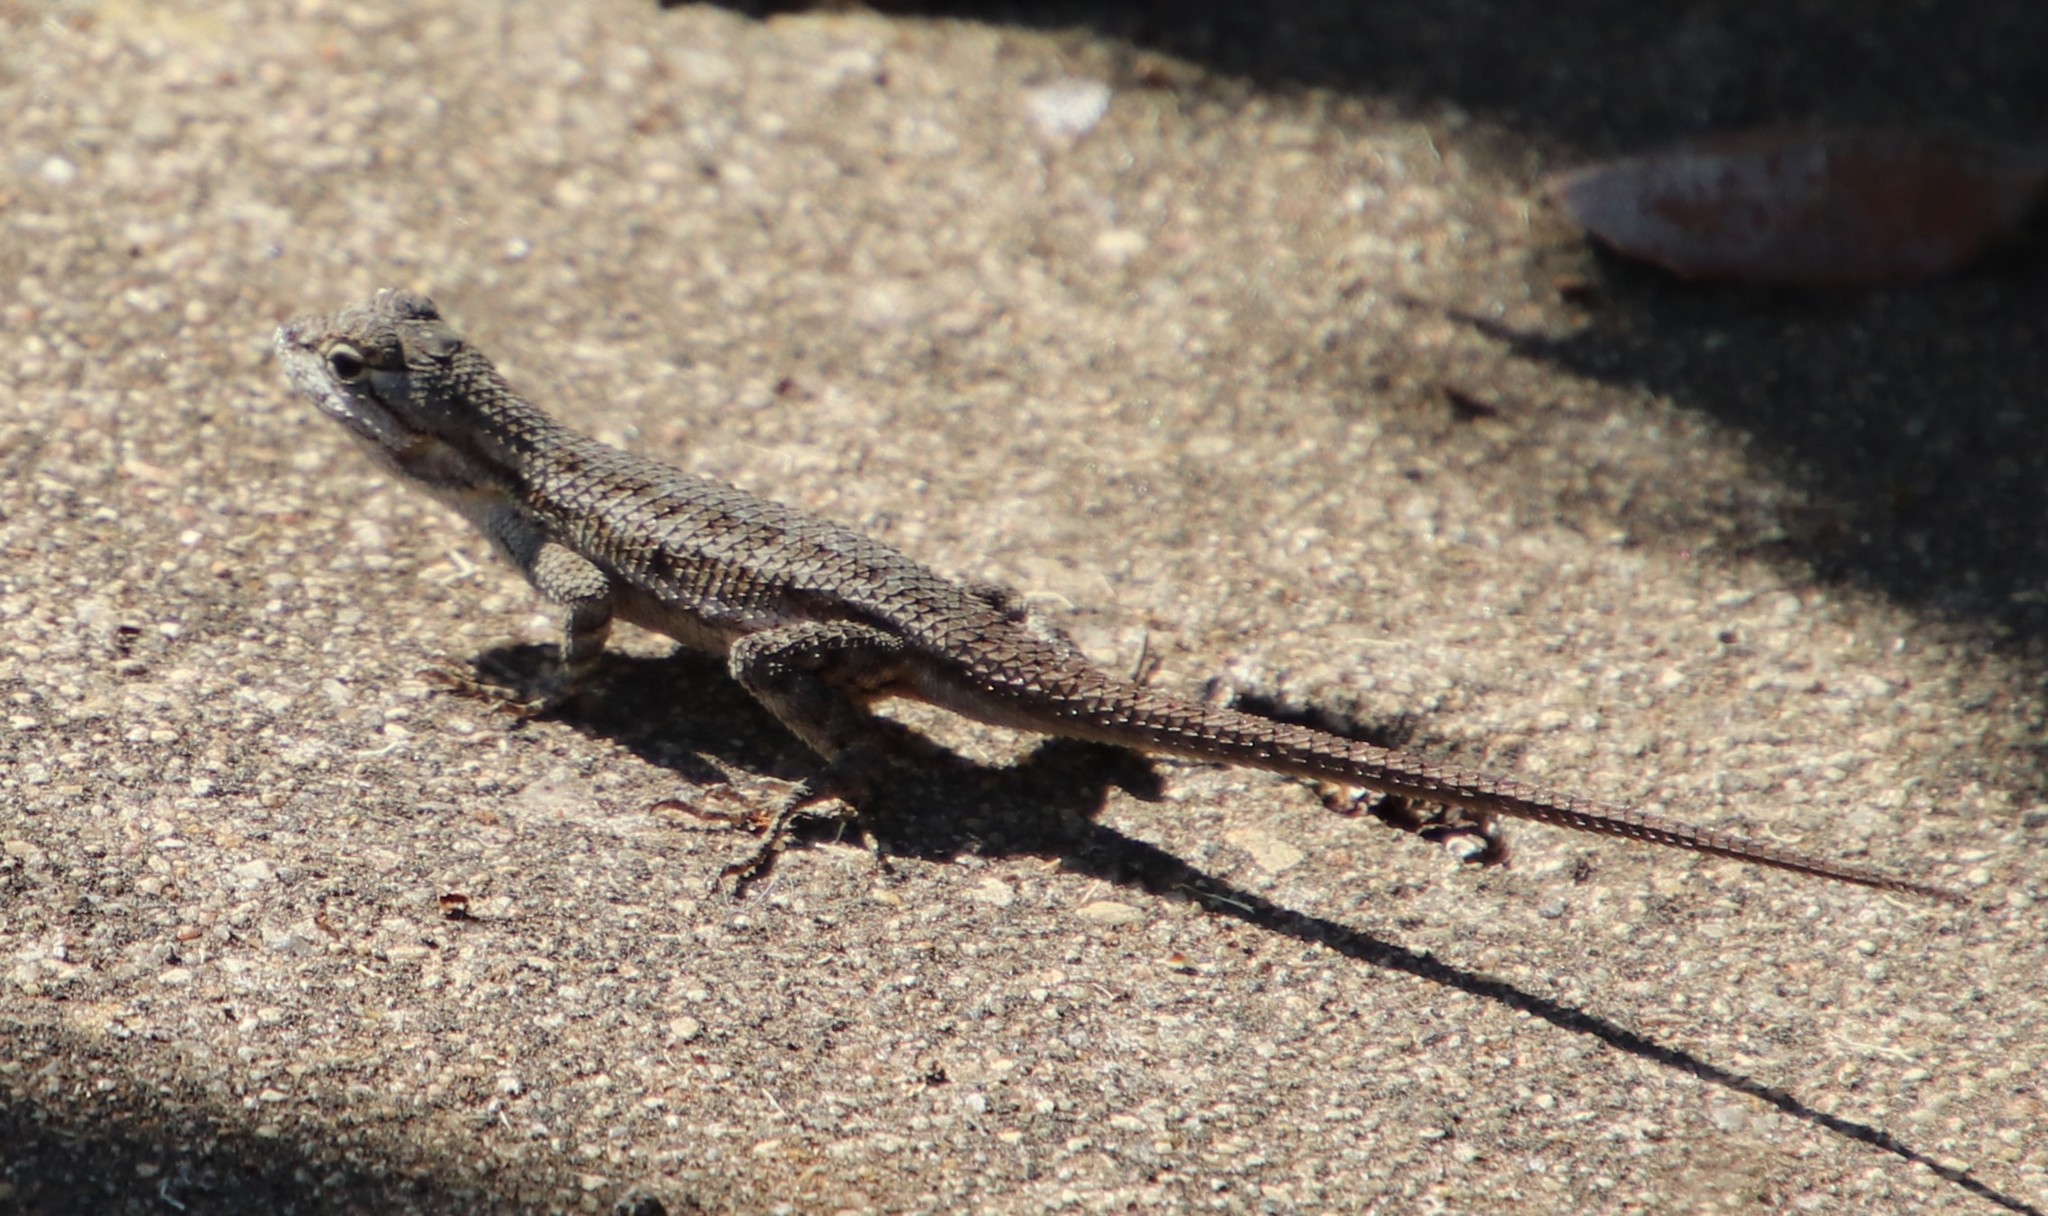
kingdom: Animalia
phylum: Chordata
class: Squamata
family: Phrynosomatidae
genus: Sceloporus
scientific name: Sceloporus occidentalis
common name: Western fence lizard
